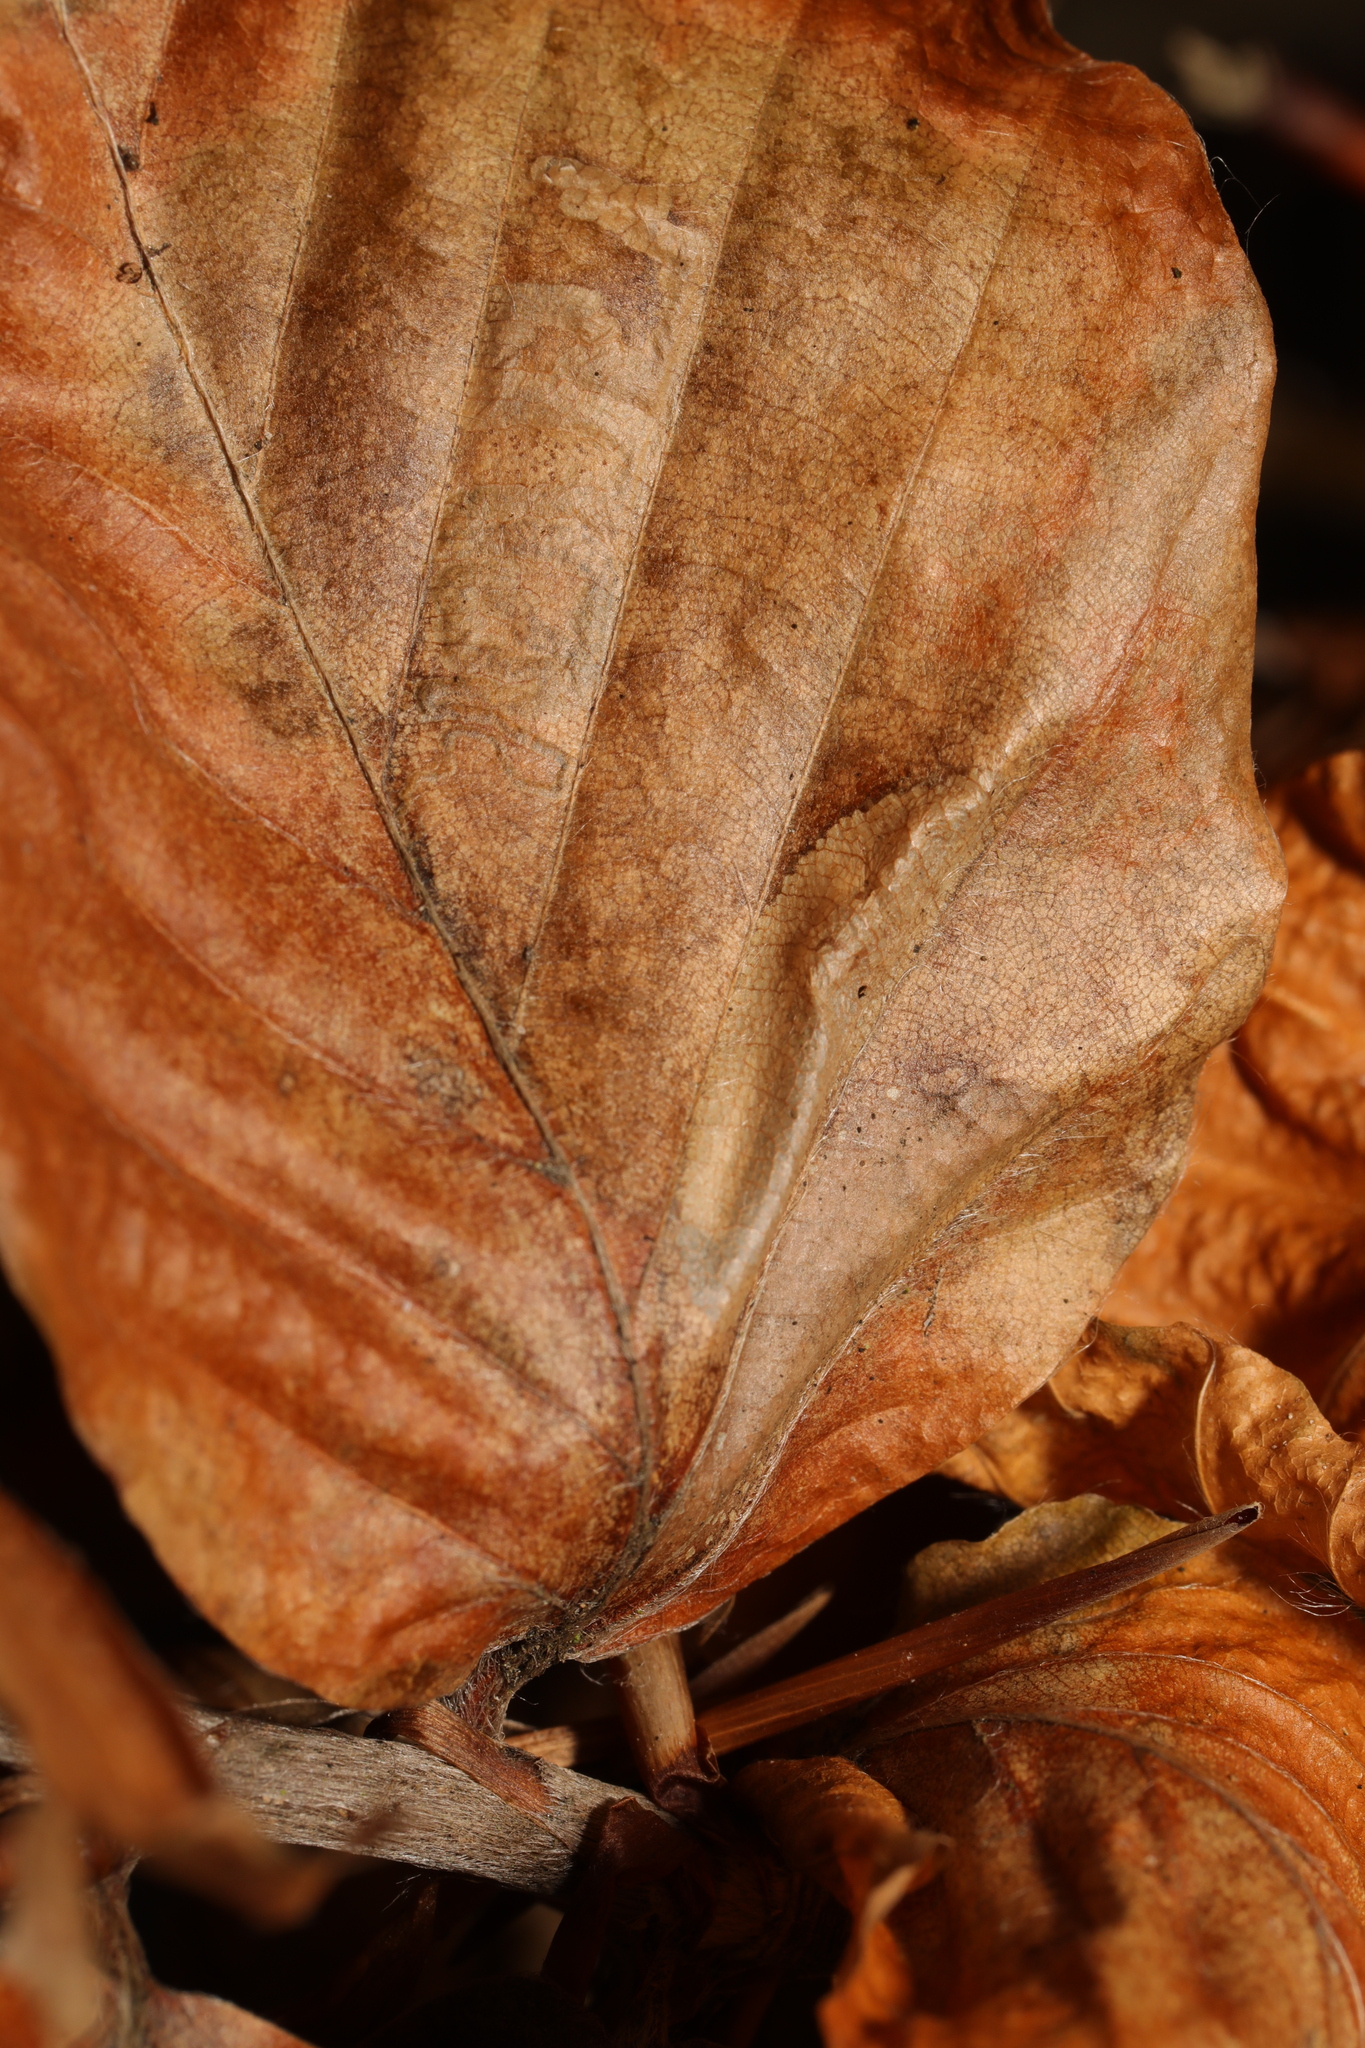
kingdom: Animalia
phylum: Arthropoda
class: Insecta
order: Lepidoptera
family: Gracillariidae
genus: Phyllonorycter
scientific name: Phyllonorycter maestingella
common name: Beech midget
